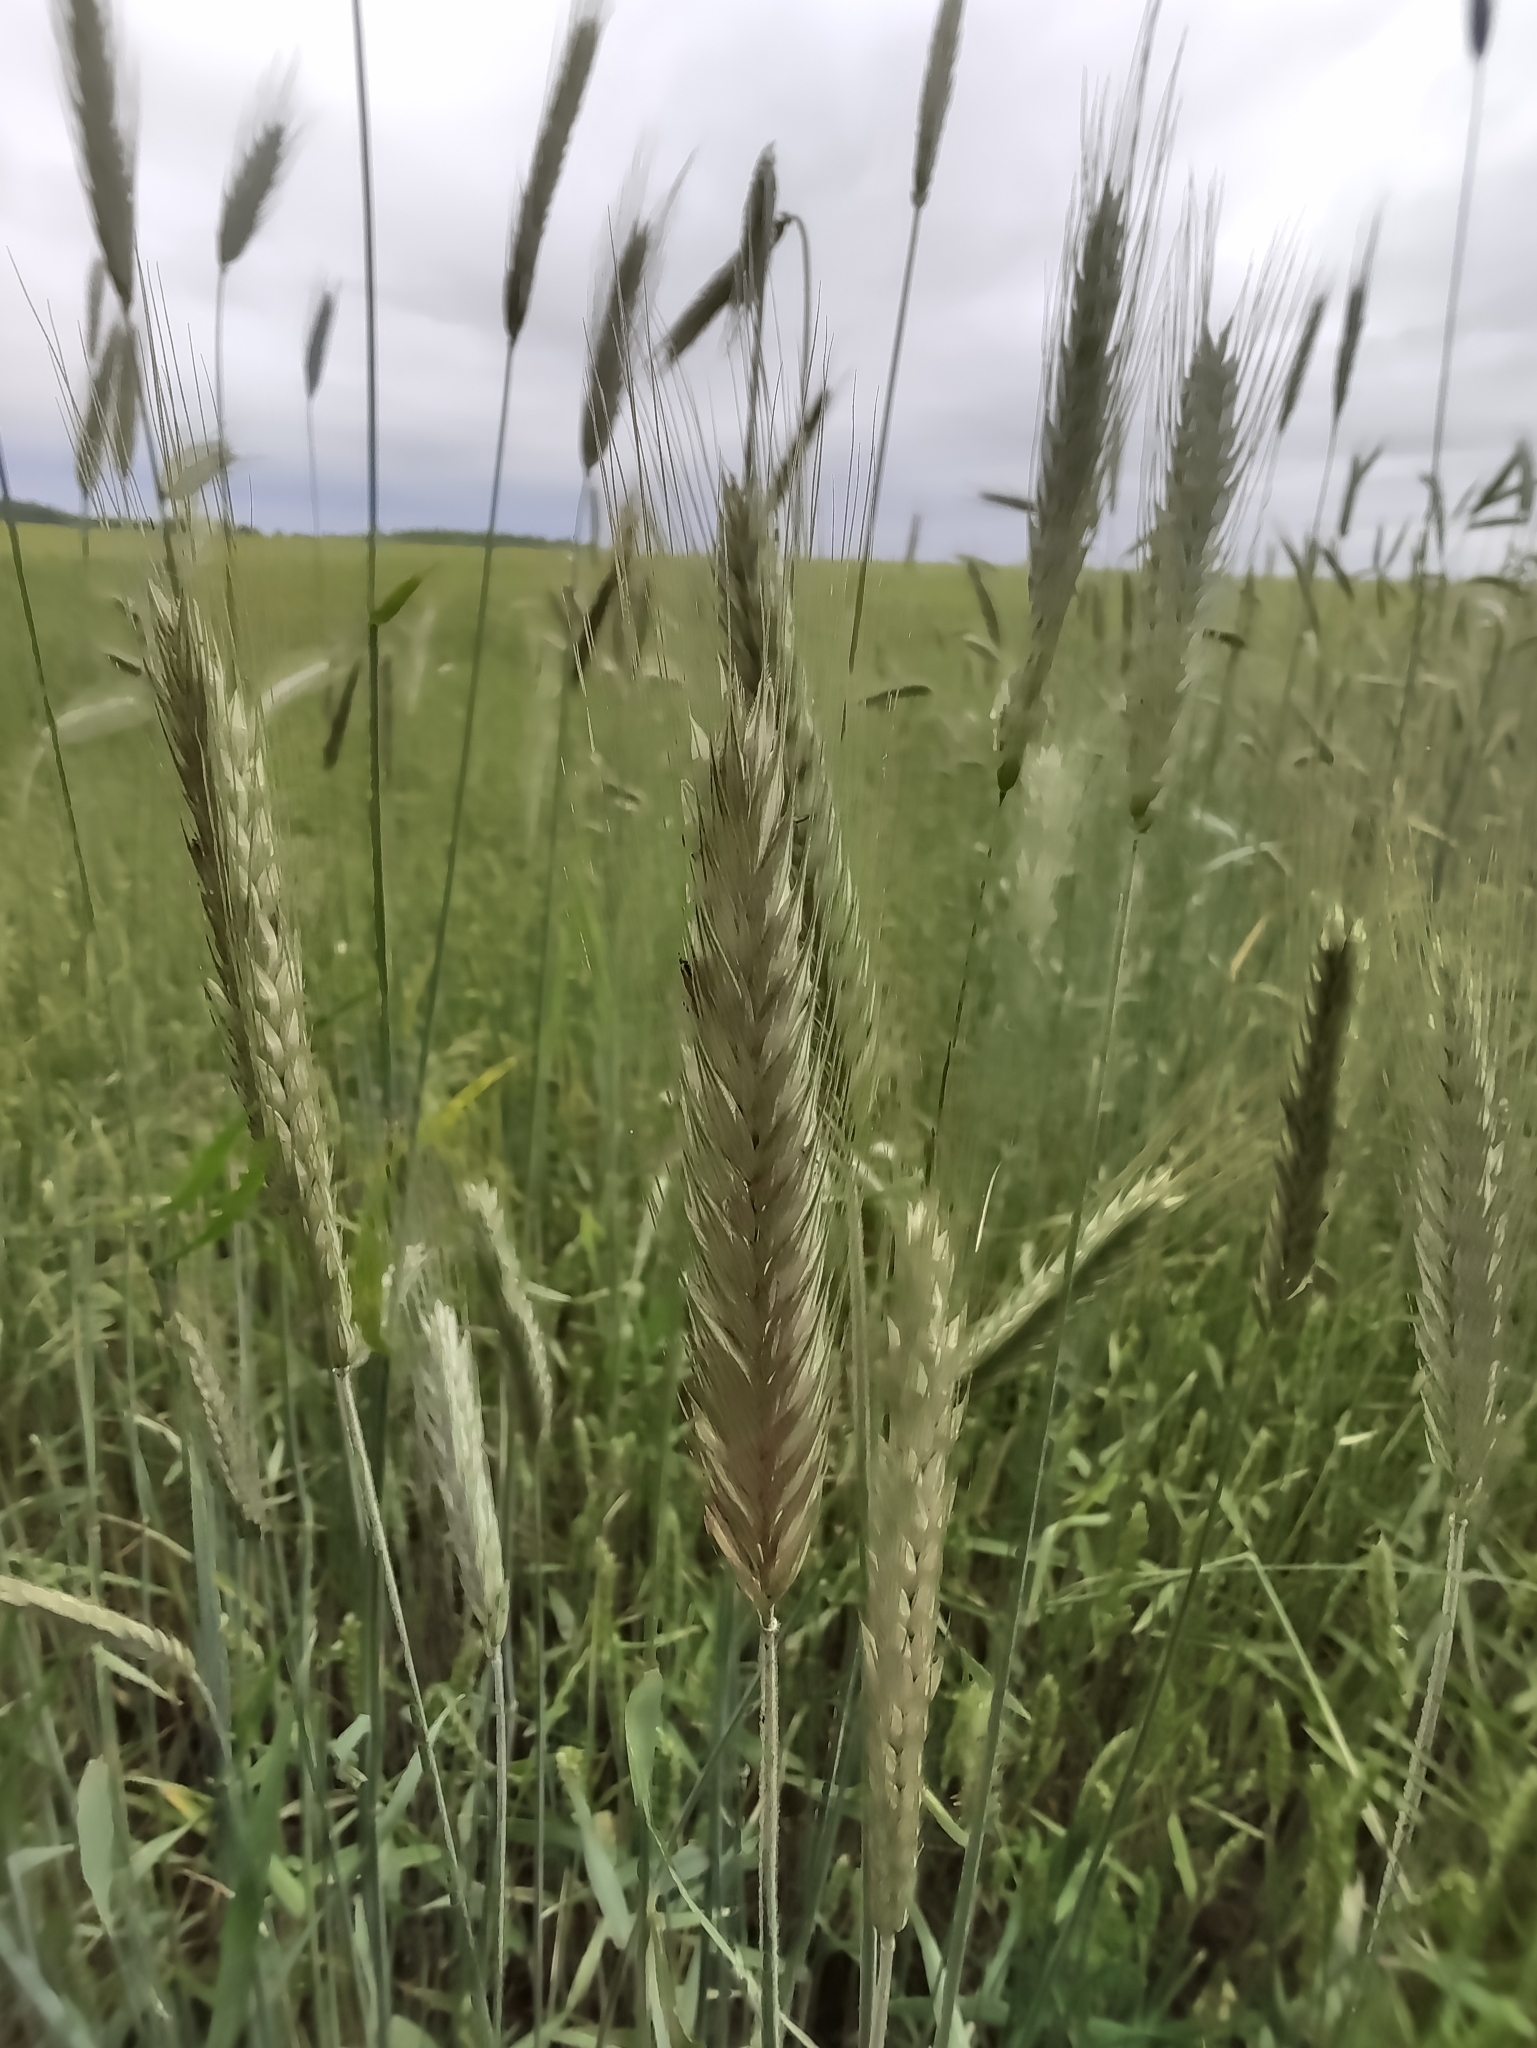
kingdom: Plantae
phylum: Tracheophyta
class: Liliopsida
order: Poales
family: Poaceae
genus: Secale
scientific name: Secale cereale
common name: Rye
